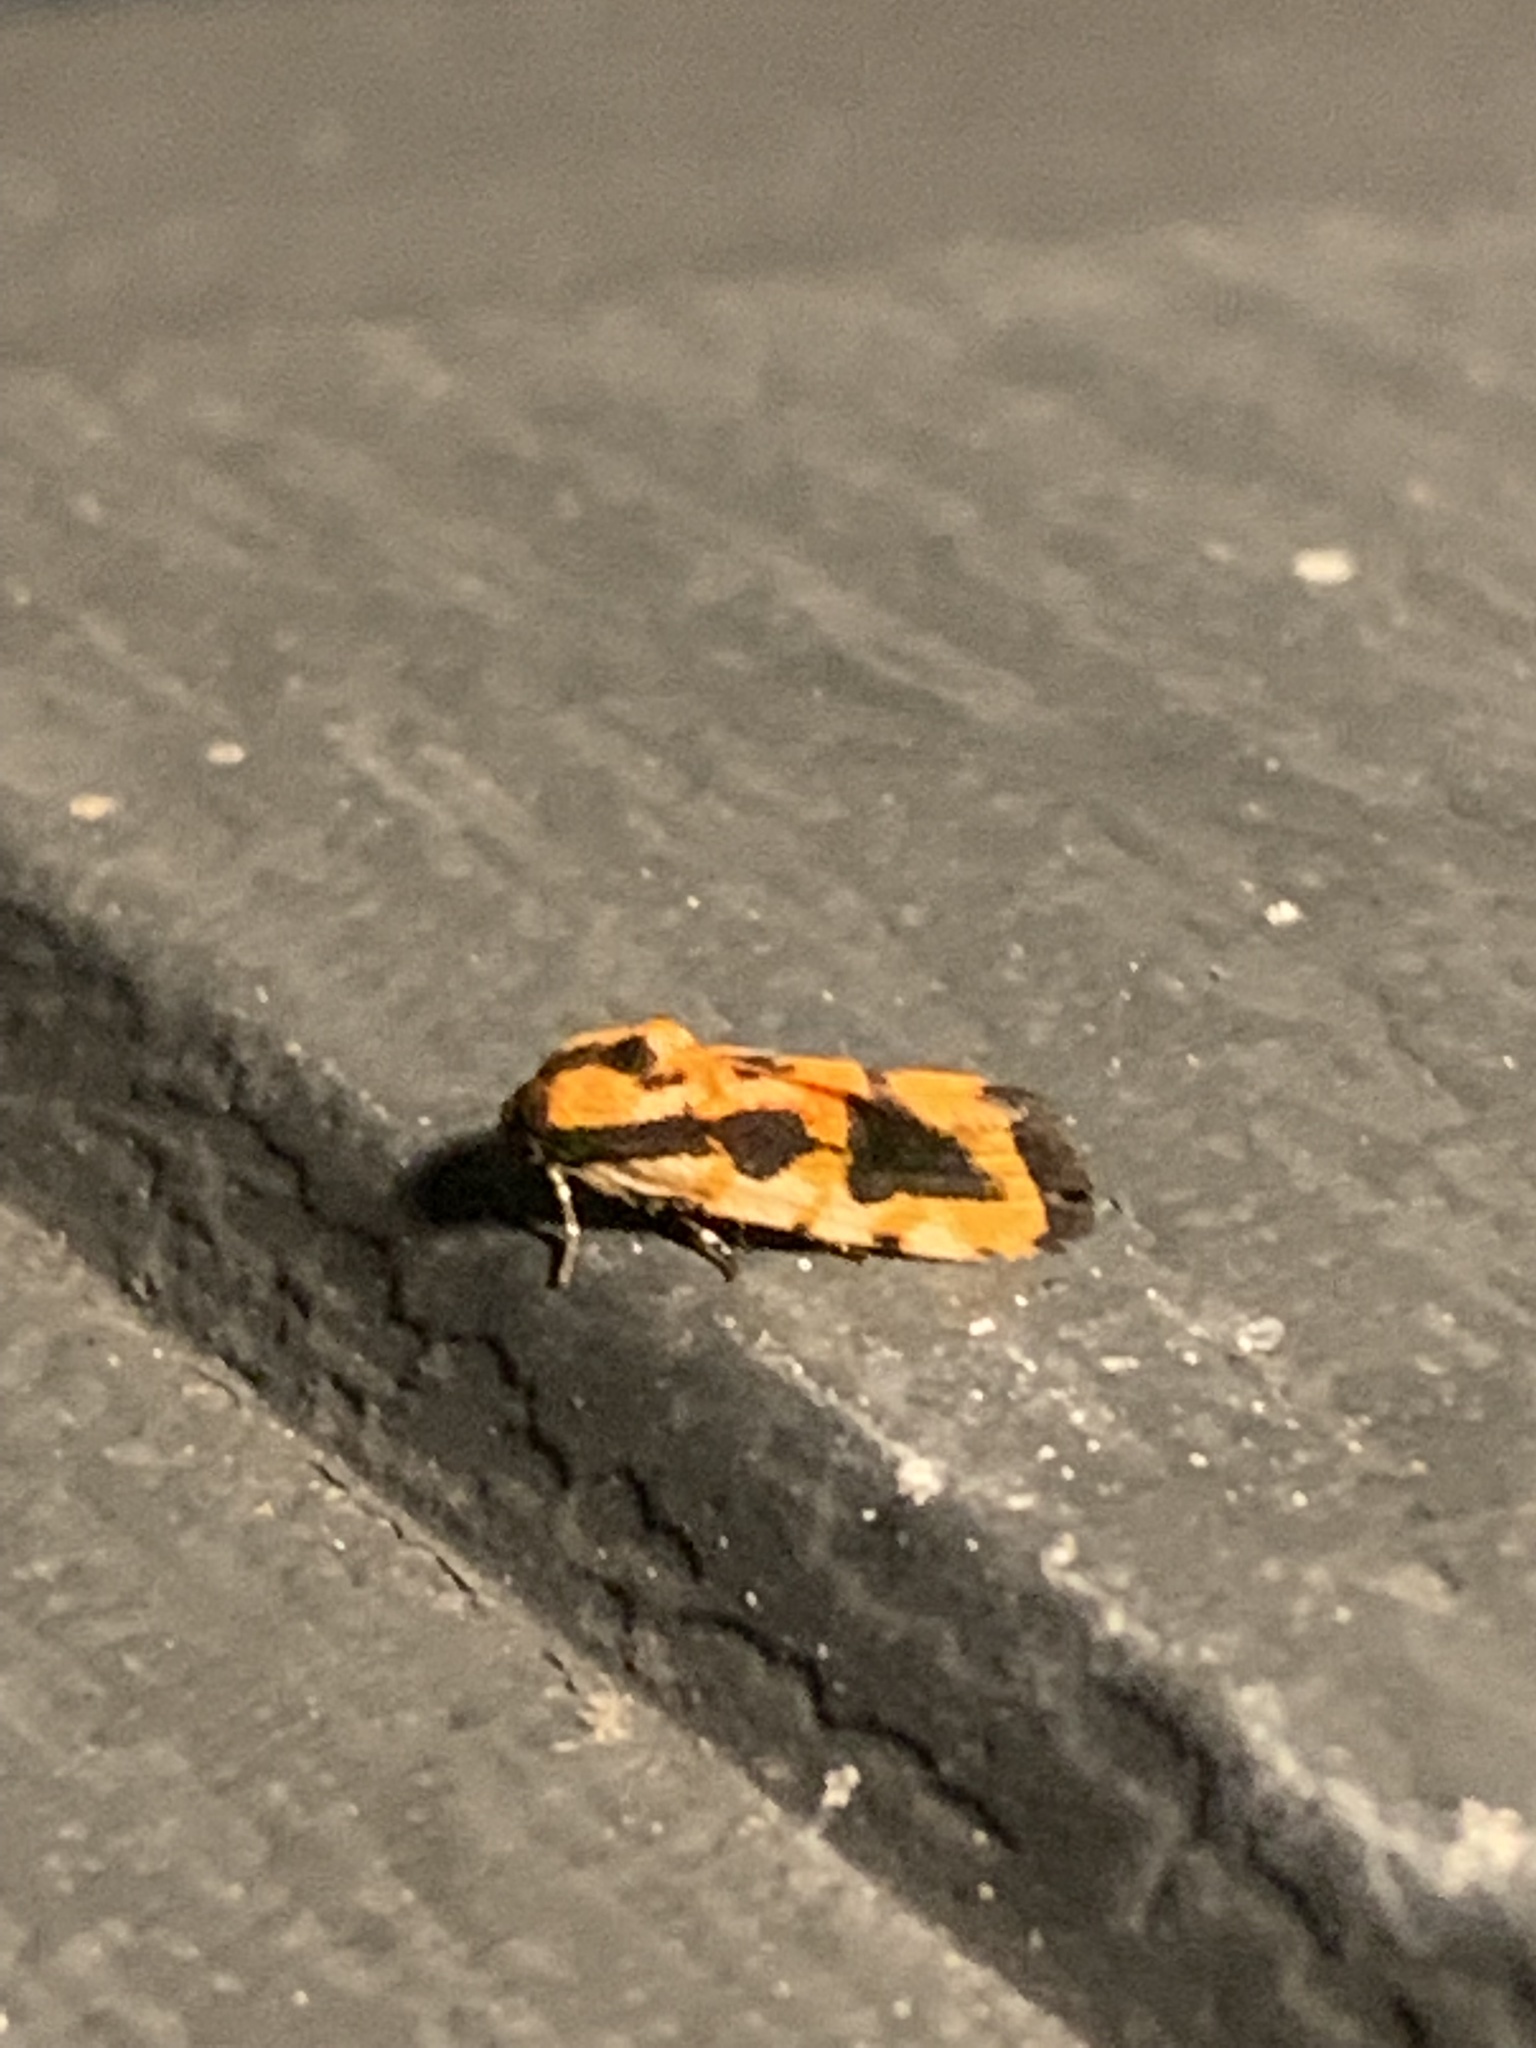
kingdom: Animalia
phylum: Arthropoda
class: Insecta
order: Lepidoptera
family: Noctuidae
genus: Acontia
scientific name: Acontia leo
